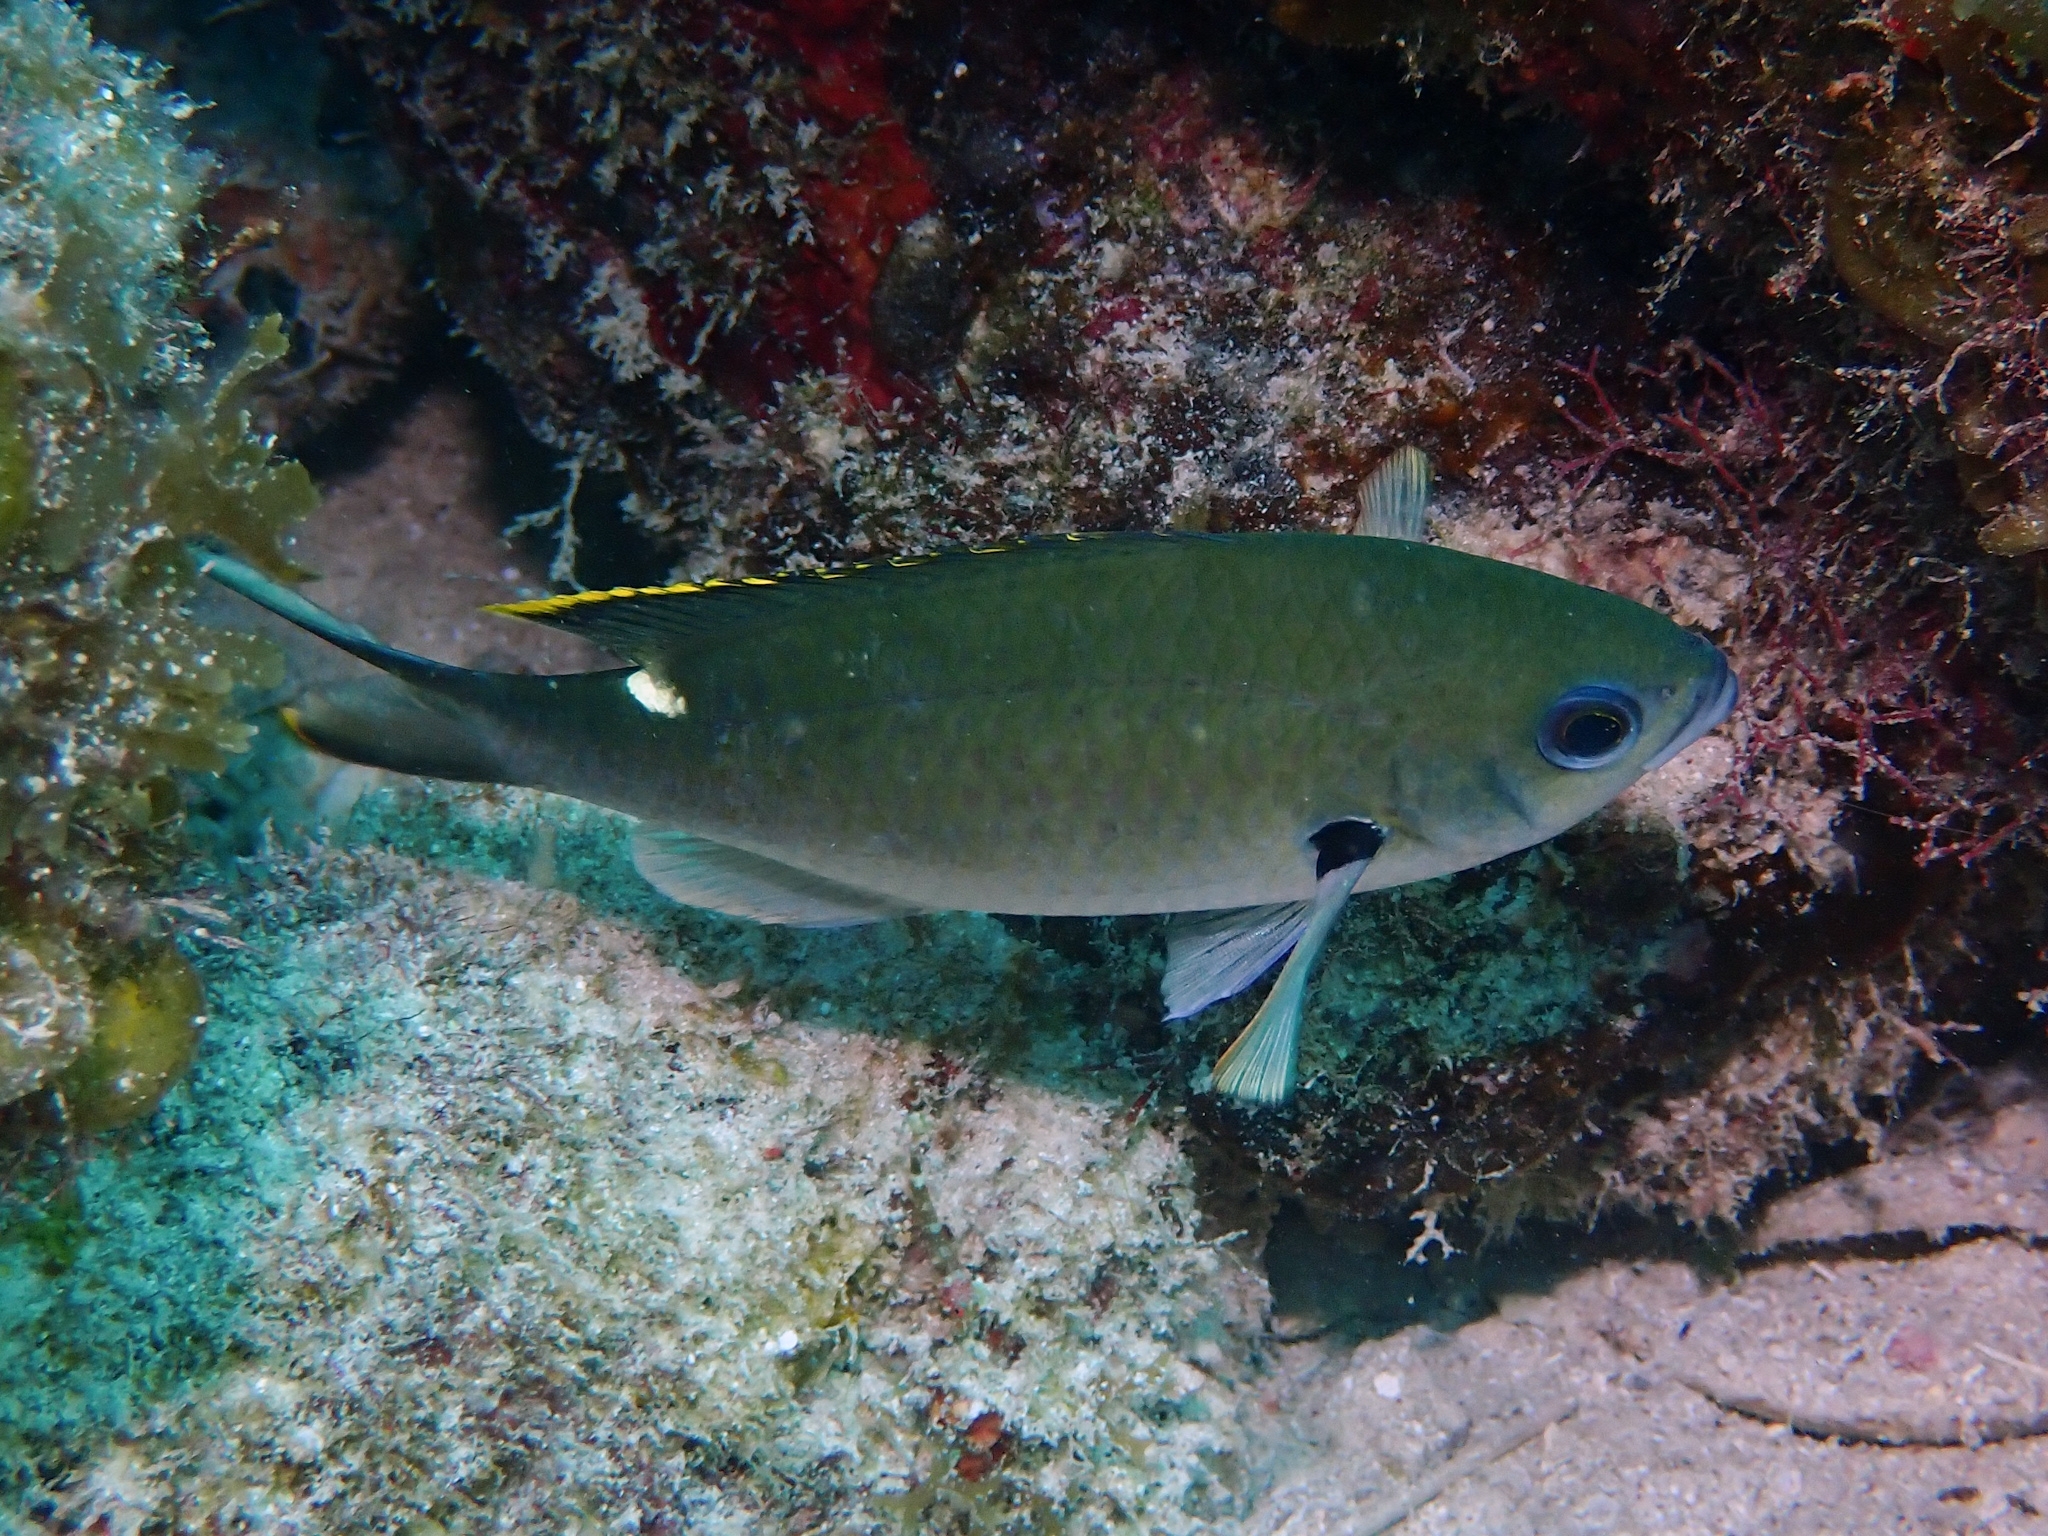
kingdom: Animalia
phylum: Chordata
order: Perciformes
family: Pomacentridae
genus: Chromis
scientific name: Chromis multilineata
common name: Brown chromis
